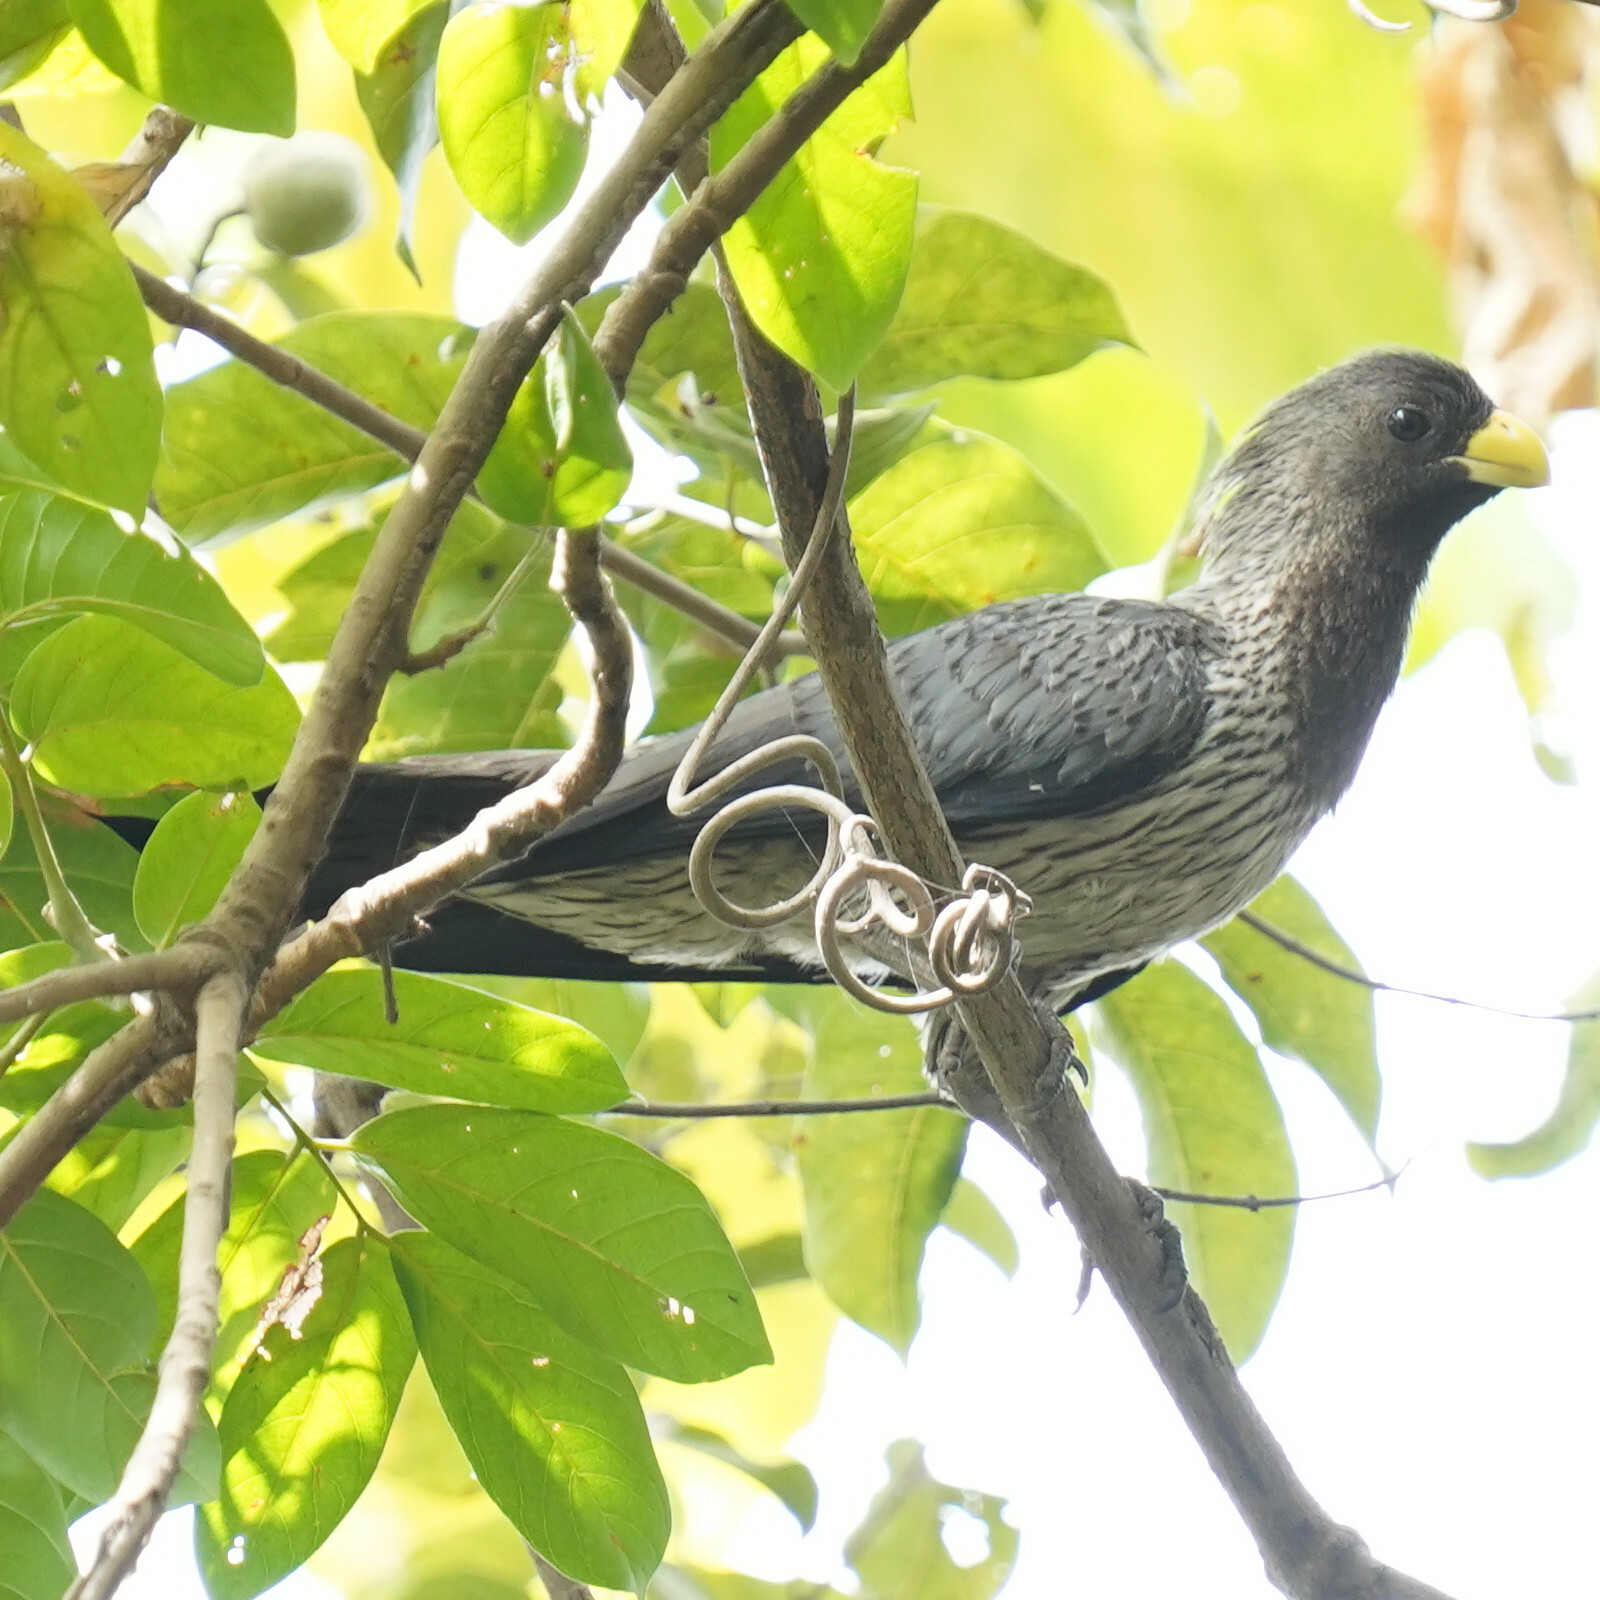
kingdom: Animalia
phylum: Chordata
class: Aves
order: Musophagiformes
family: Musophagidae
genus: Crinifer
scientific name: Crinifer piscator
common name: Western plantain-eater
